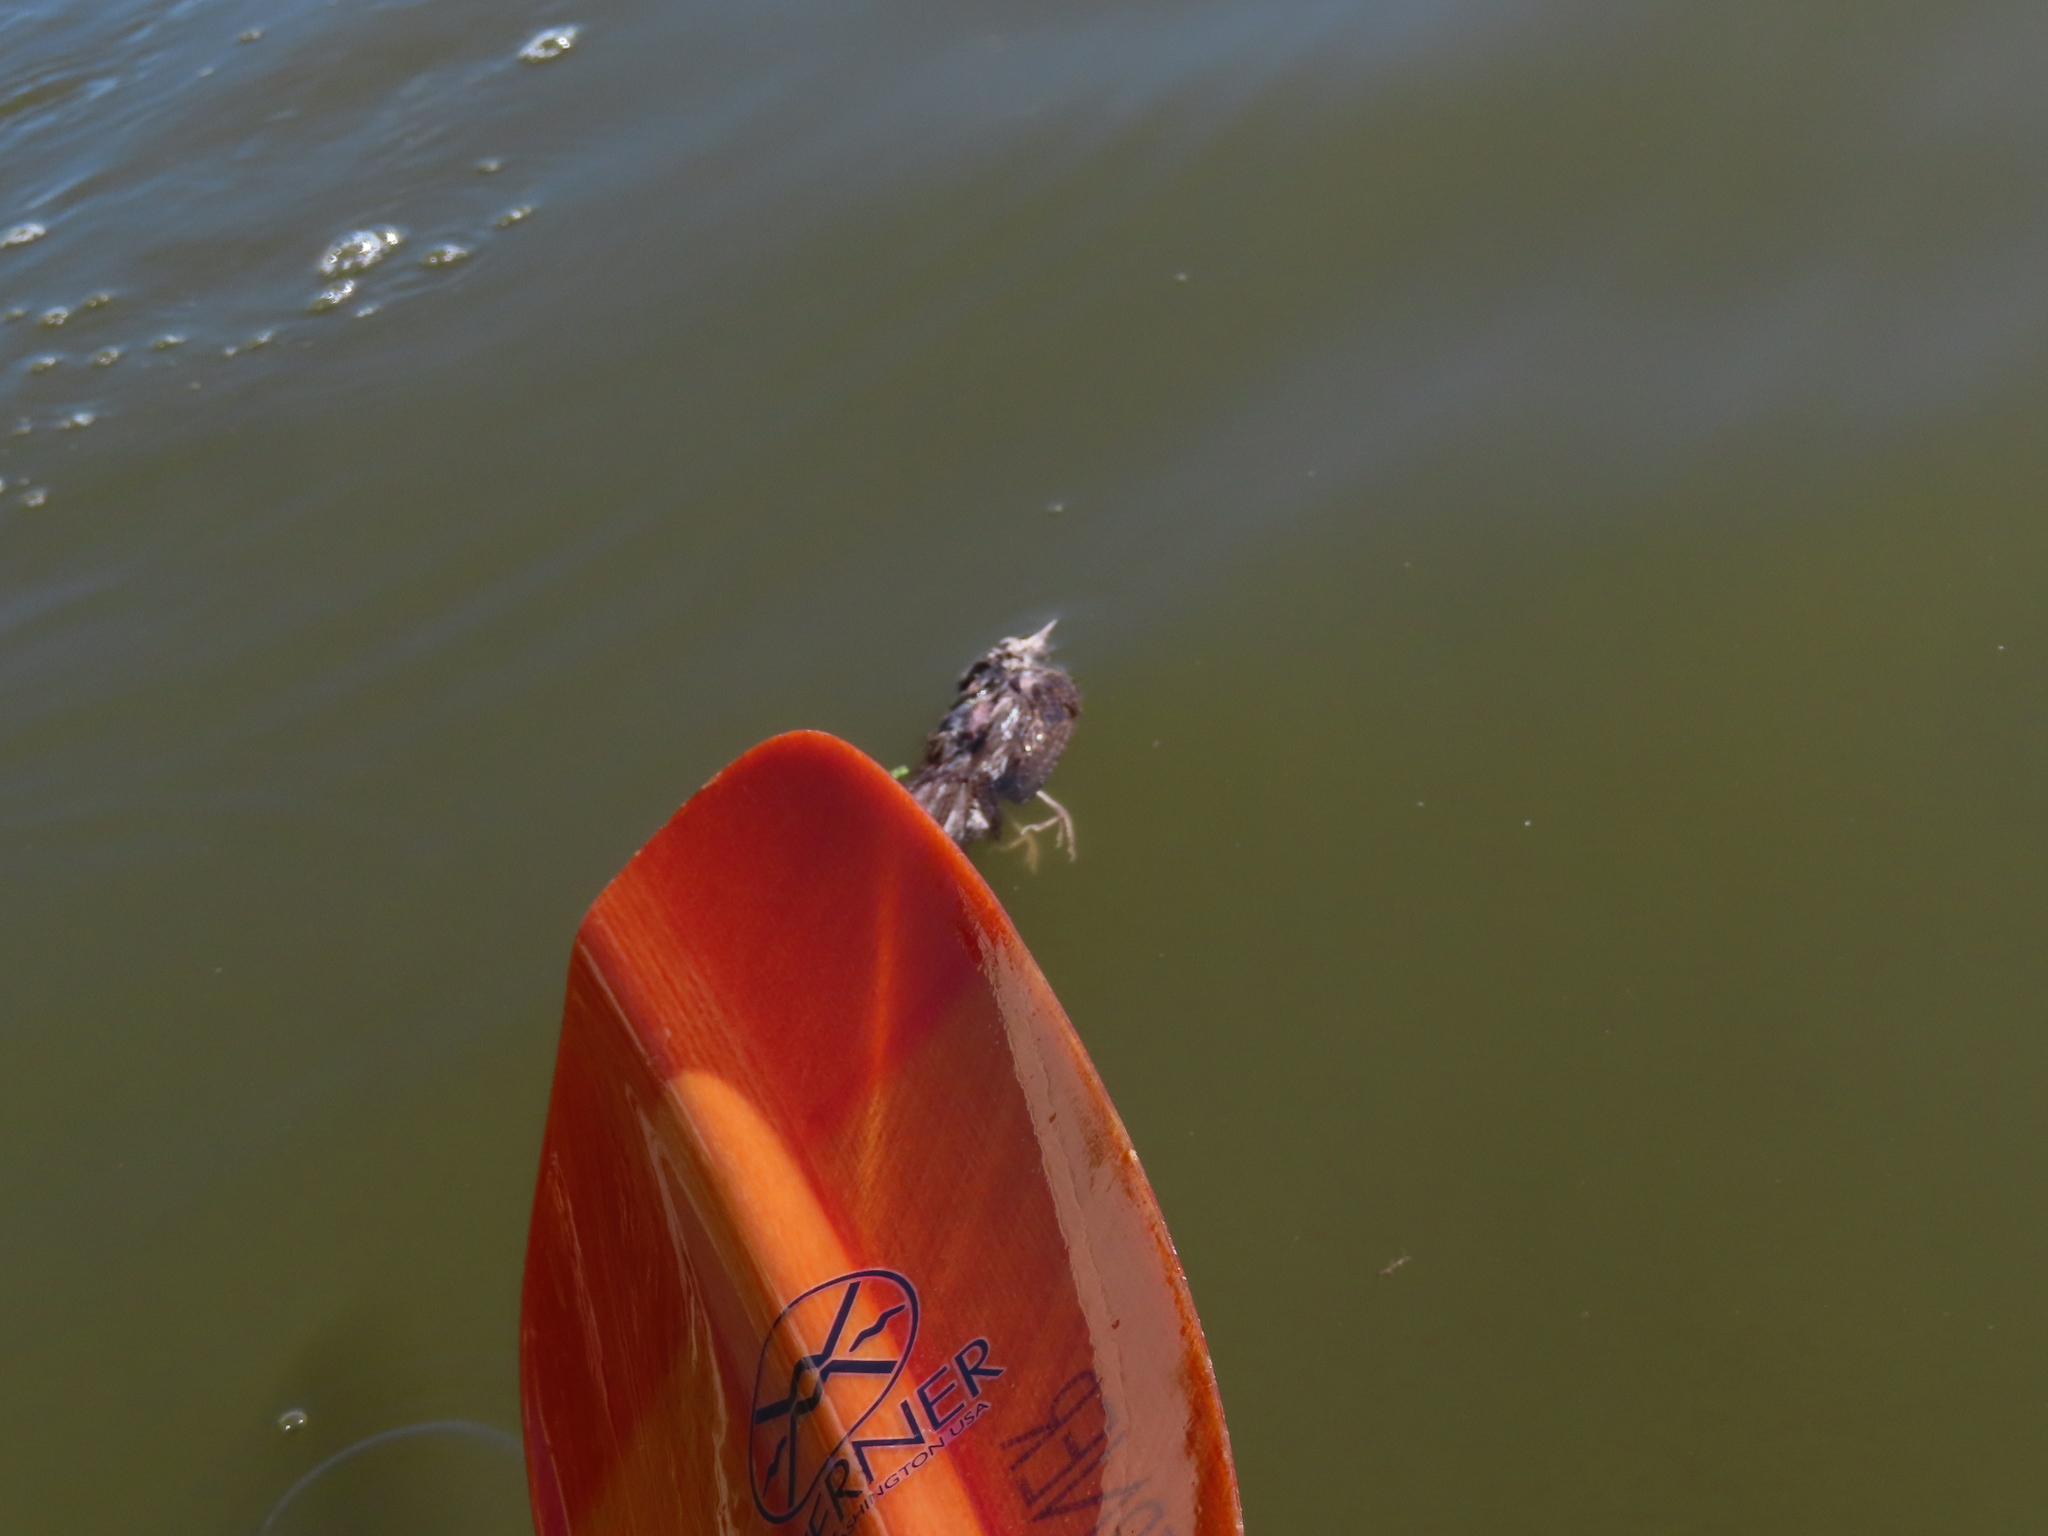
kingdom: Animalia
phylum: Chordata
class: Aves
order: Passeriformes
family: Troglodytidae
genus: Troglodytes
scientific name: Troglodytes aedon
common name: House wren
